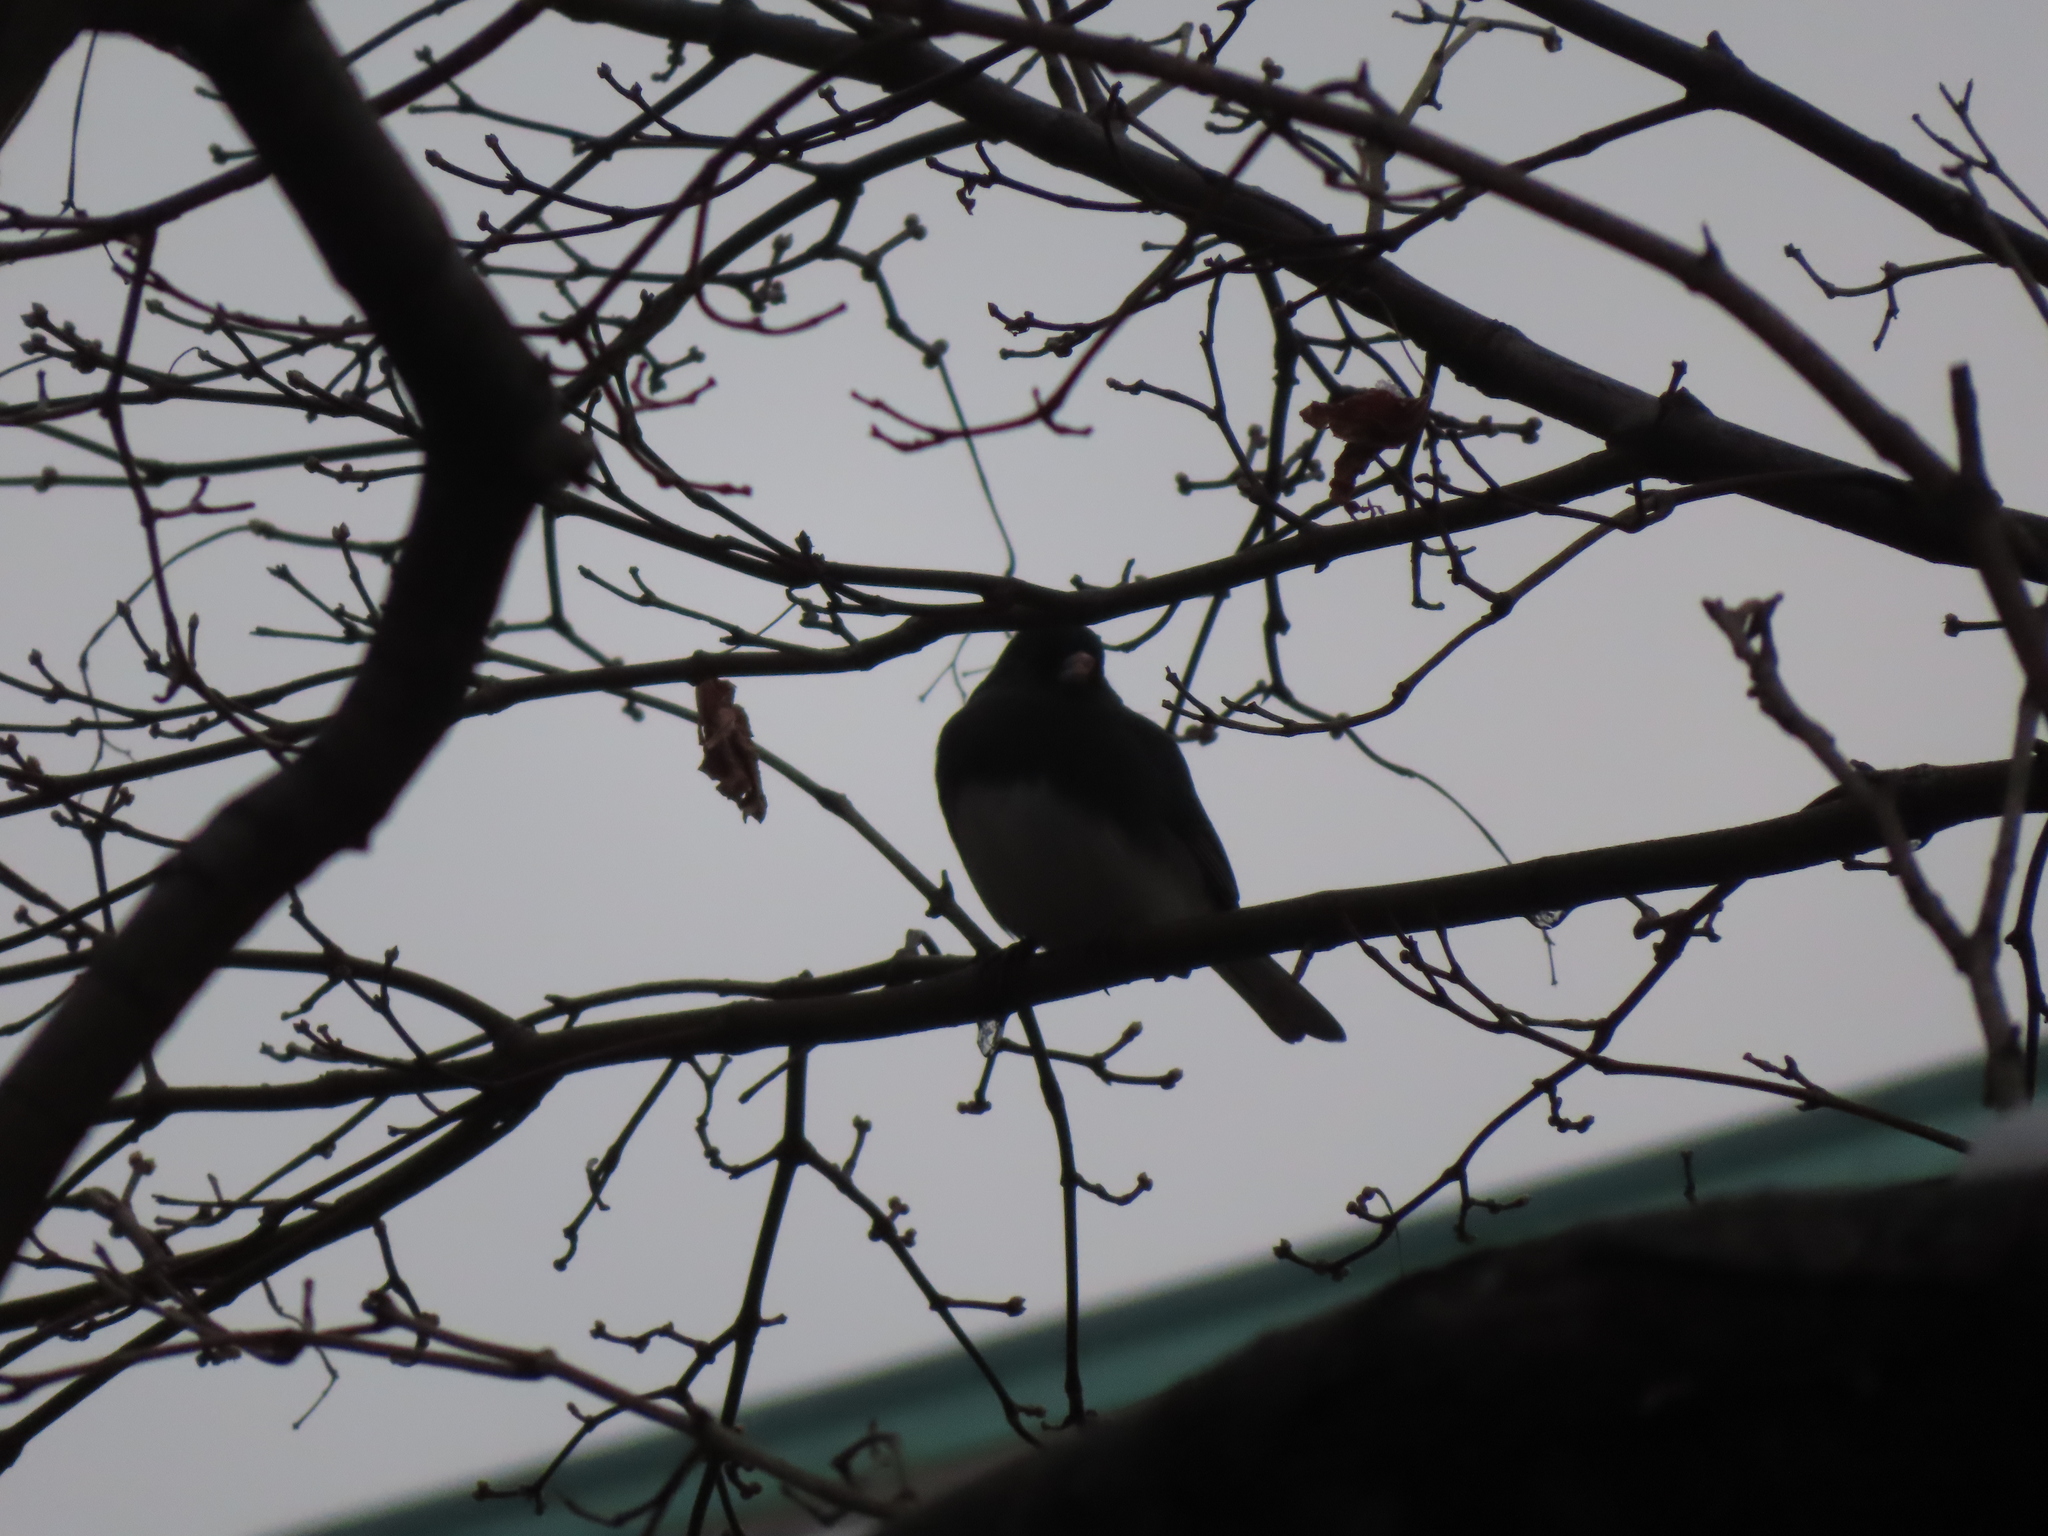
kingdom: Animalia
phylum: Chordata
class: Aves
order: Passeriformes
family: Passerellidae
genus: Junco
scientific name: Junco hyemalis
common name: Dark-eyed junco
